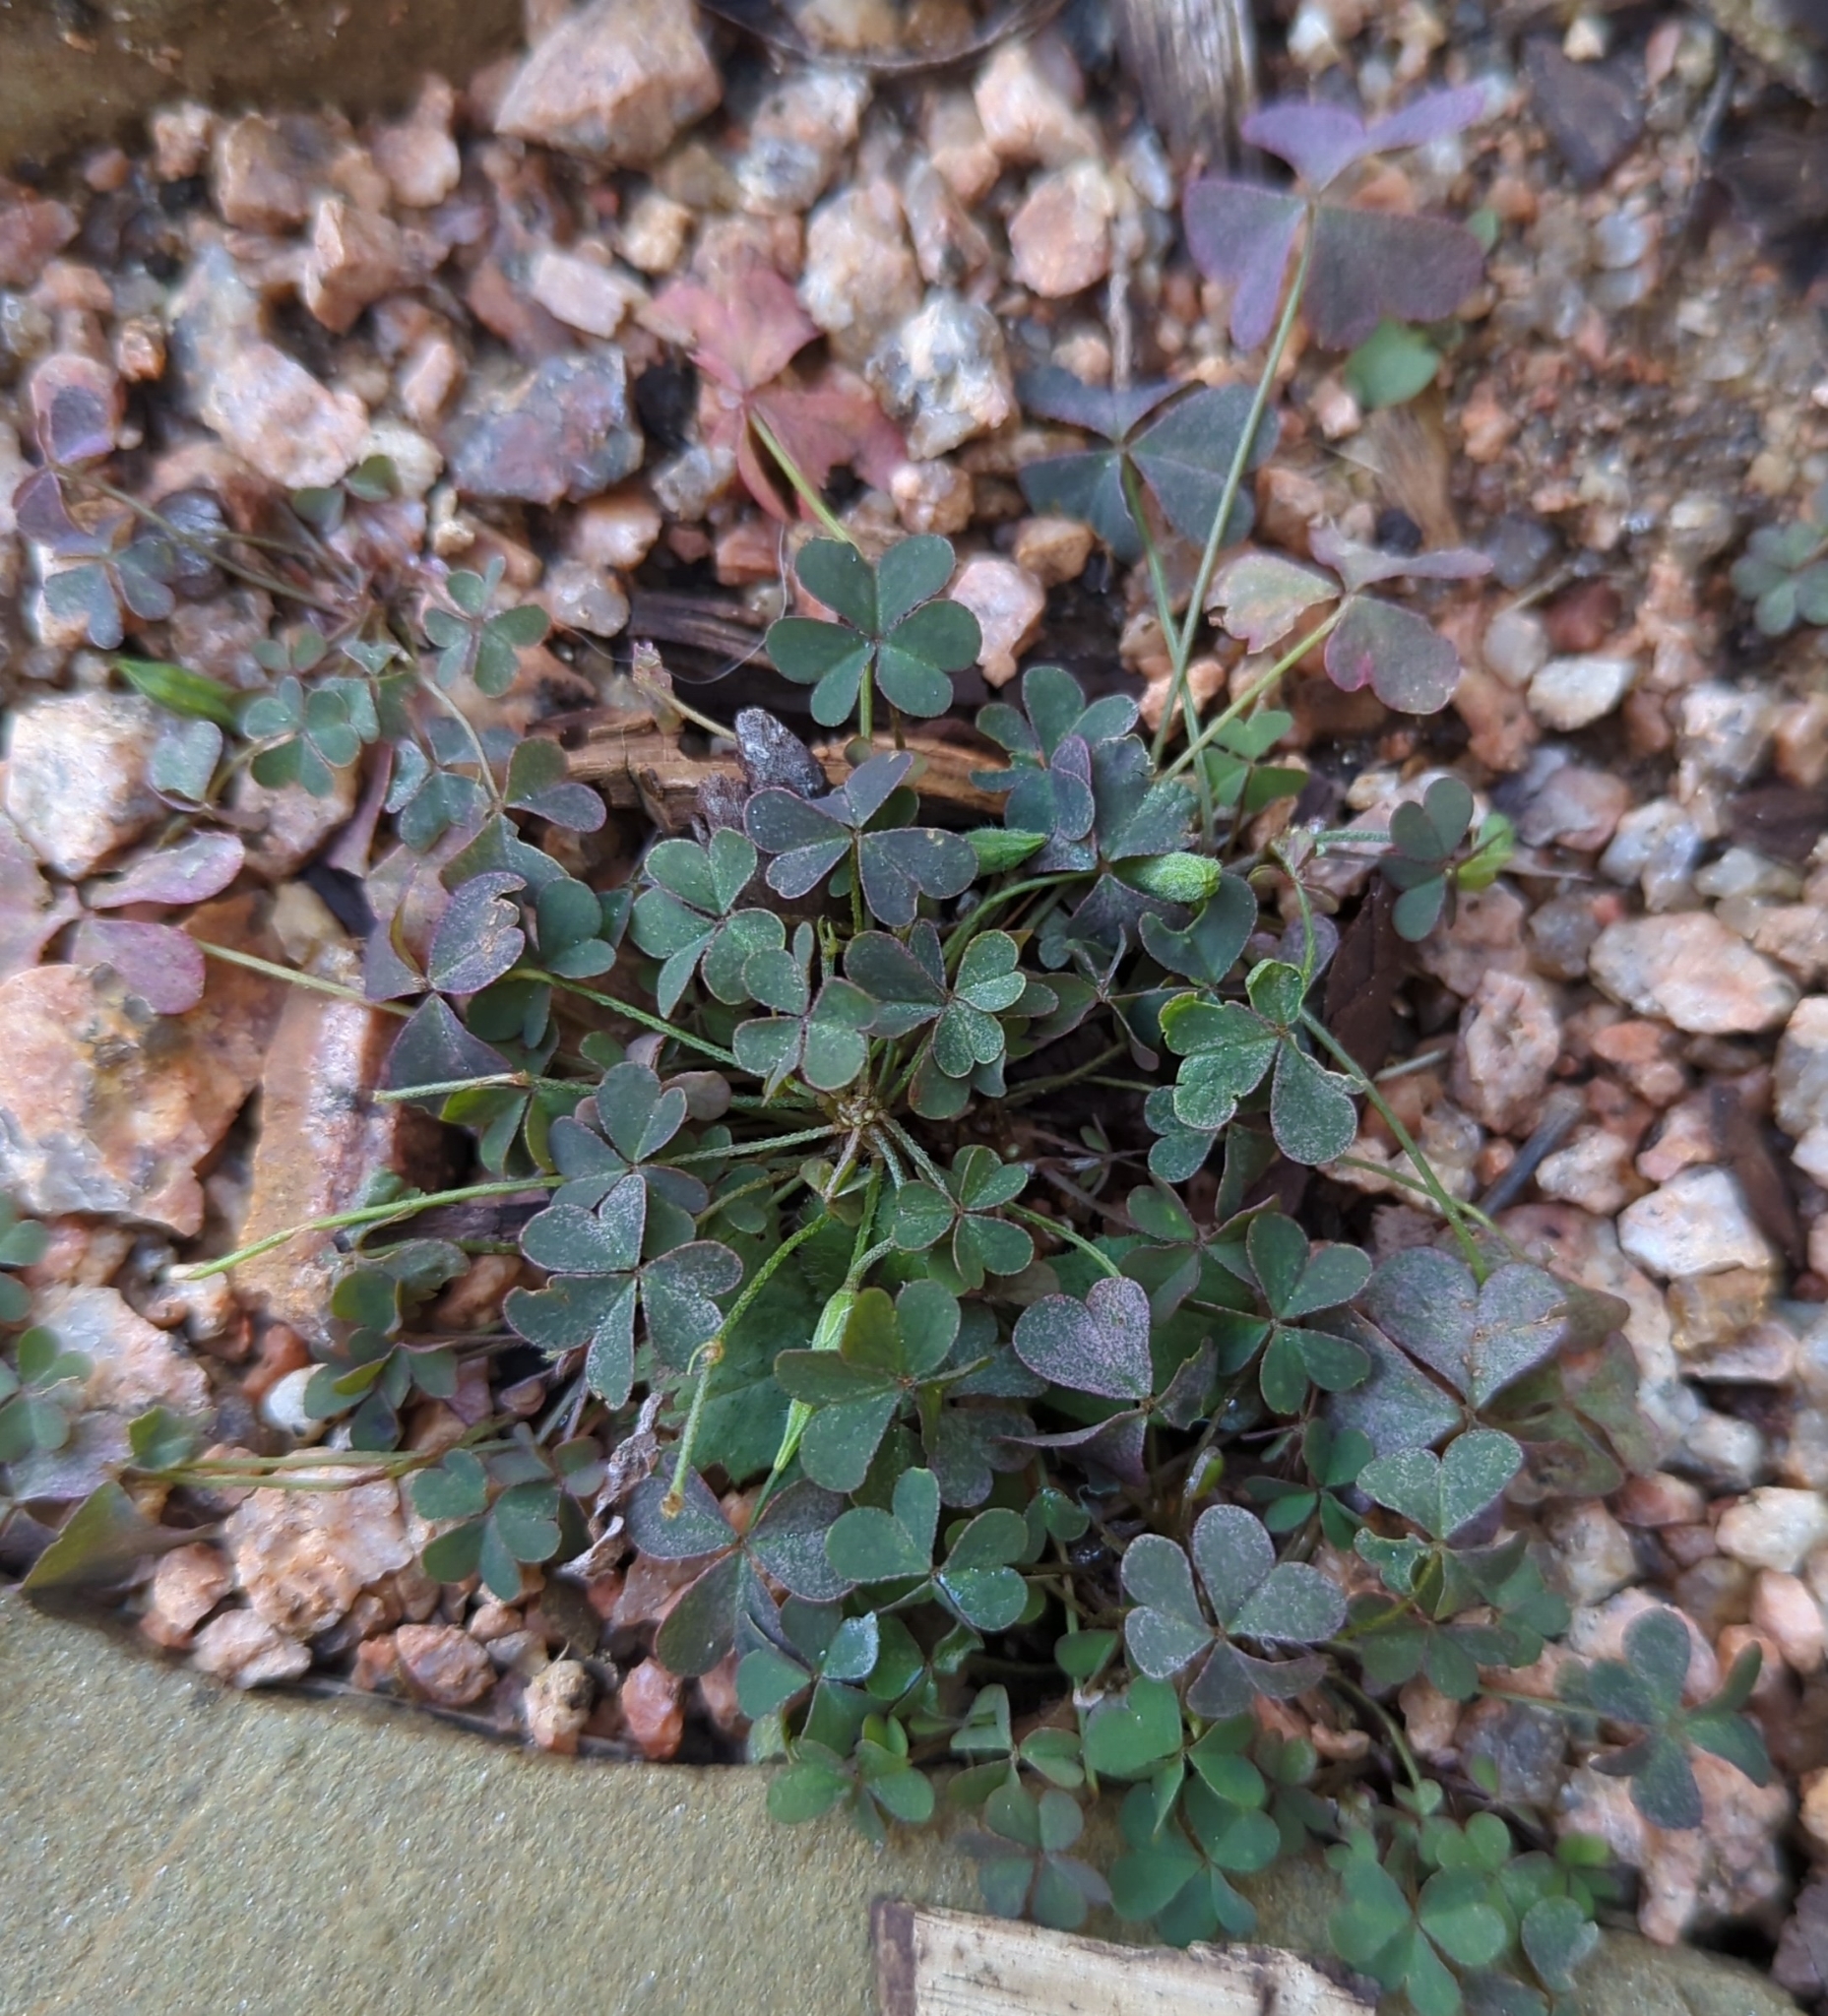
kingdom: Plantae
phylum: Tracheophyta
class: Magnoliopsida
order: Oxalidales
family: Oxalidaceae
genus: Oxalis
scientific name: Oxalis corniculata
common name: Procumbent yellow-sorrel
